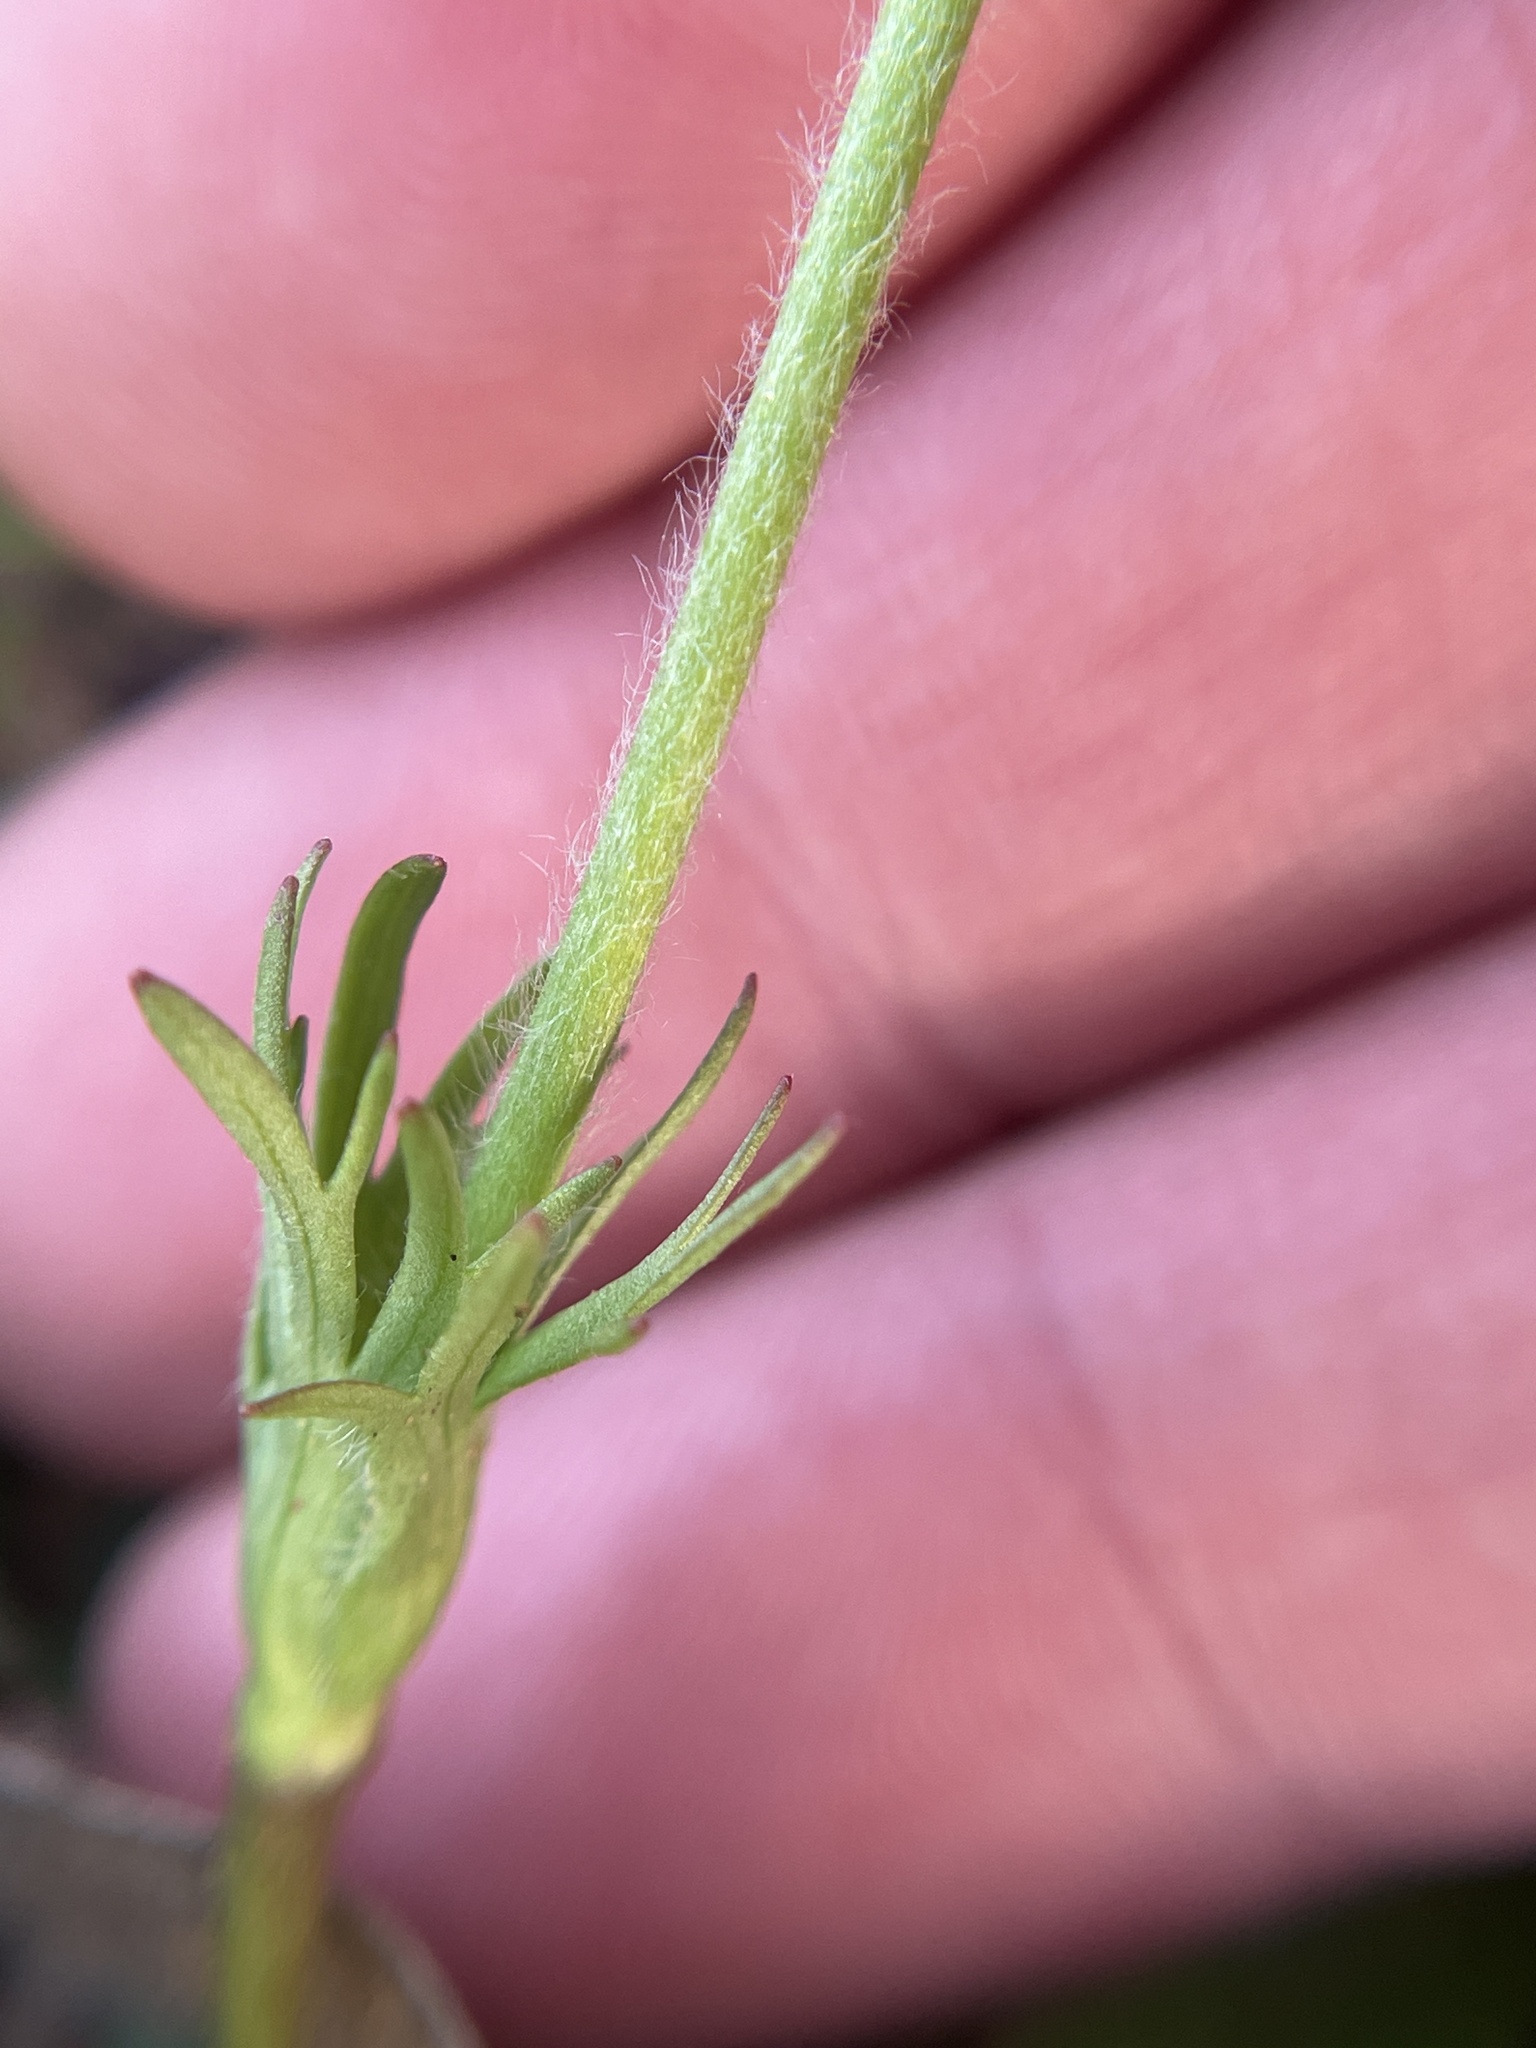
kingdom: Plantae
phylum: Tracheophyta
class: Magnoliopsida
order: Ranunculales
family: Ranunculaceae
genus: Anemone
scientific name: Anemone caroliniana
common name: Carolina anemone
